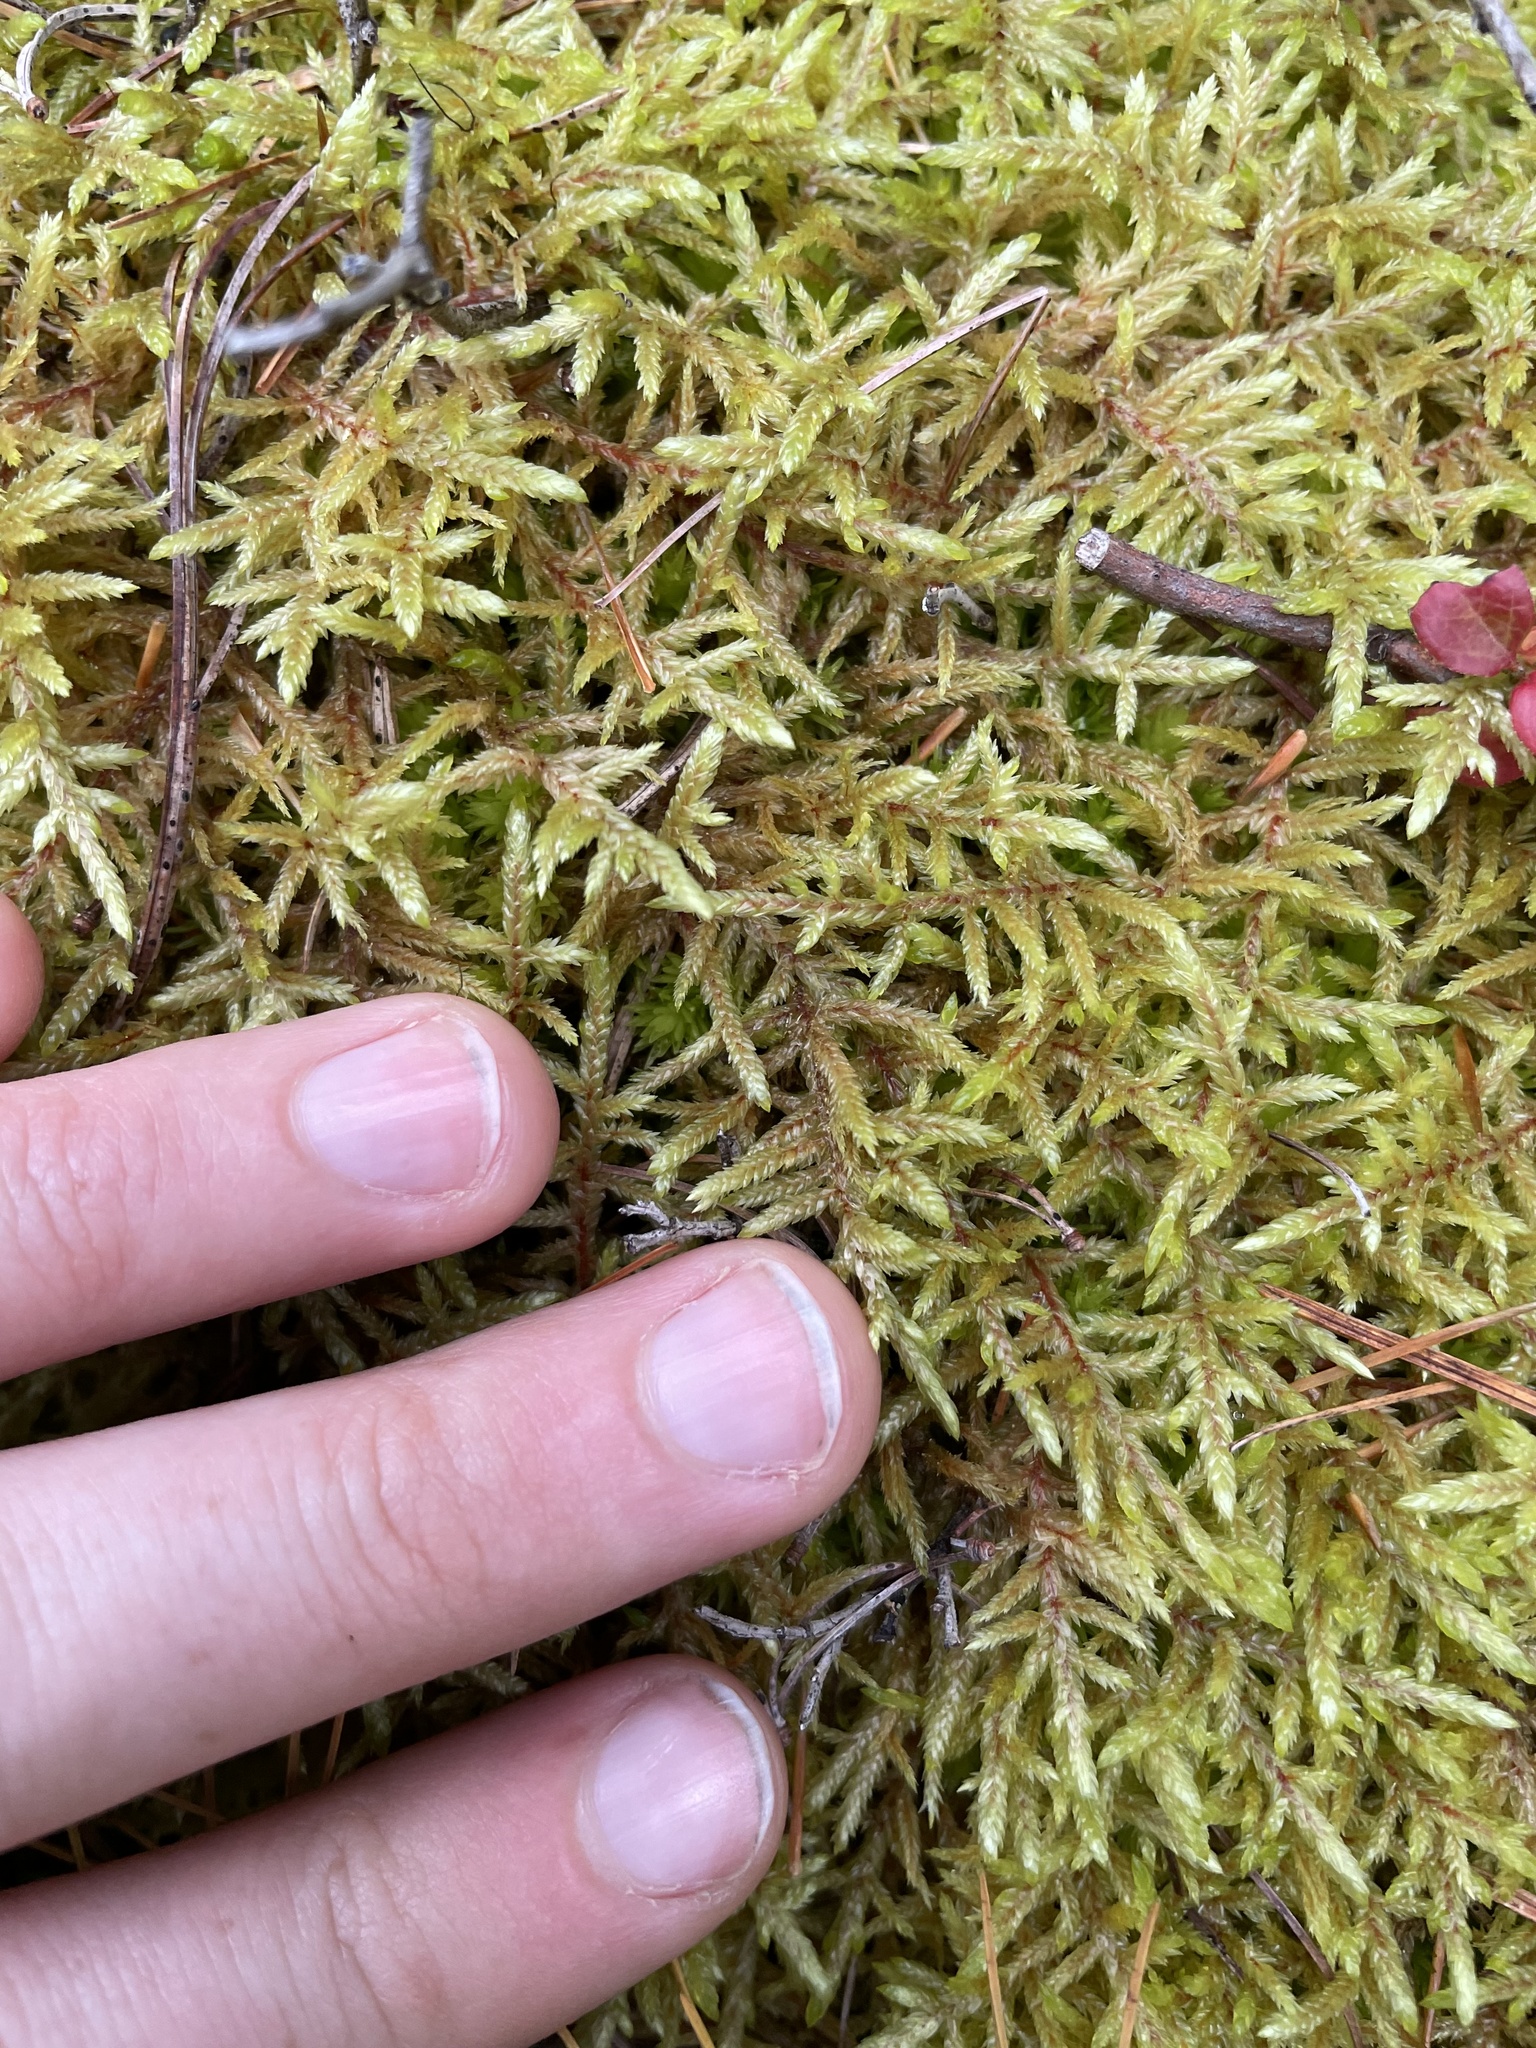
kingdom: Plantae
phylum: Bryophyta
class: Bryopsida
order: Hypnales
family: Hylocomiaceae
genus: Pleurozium
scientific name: Pleurozium schreberi
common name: Red-stemmed feather moss
